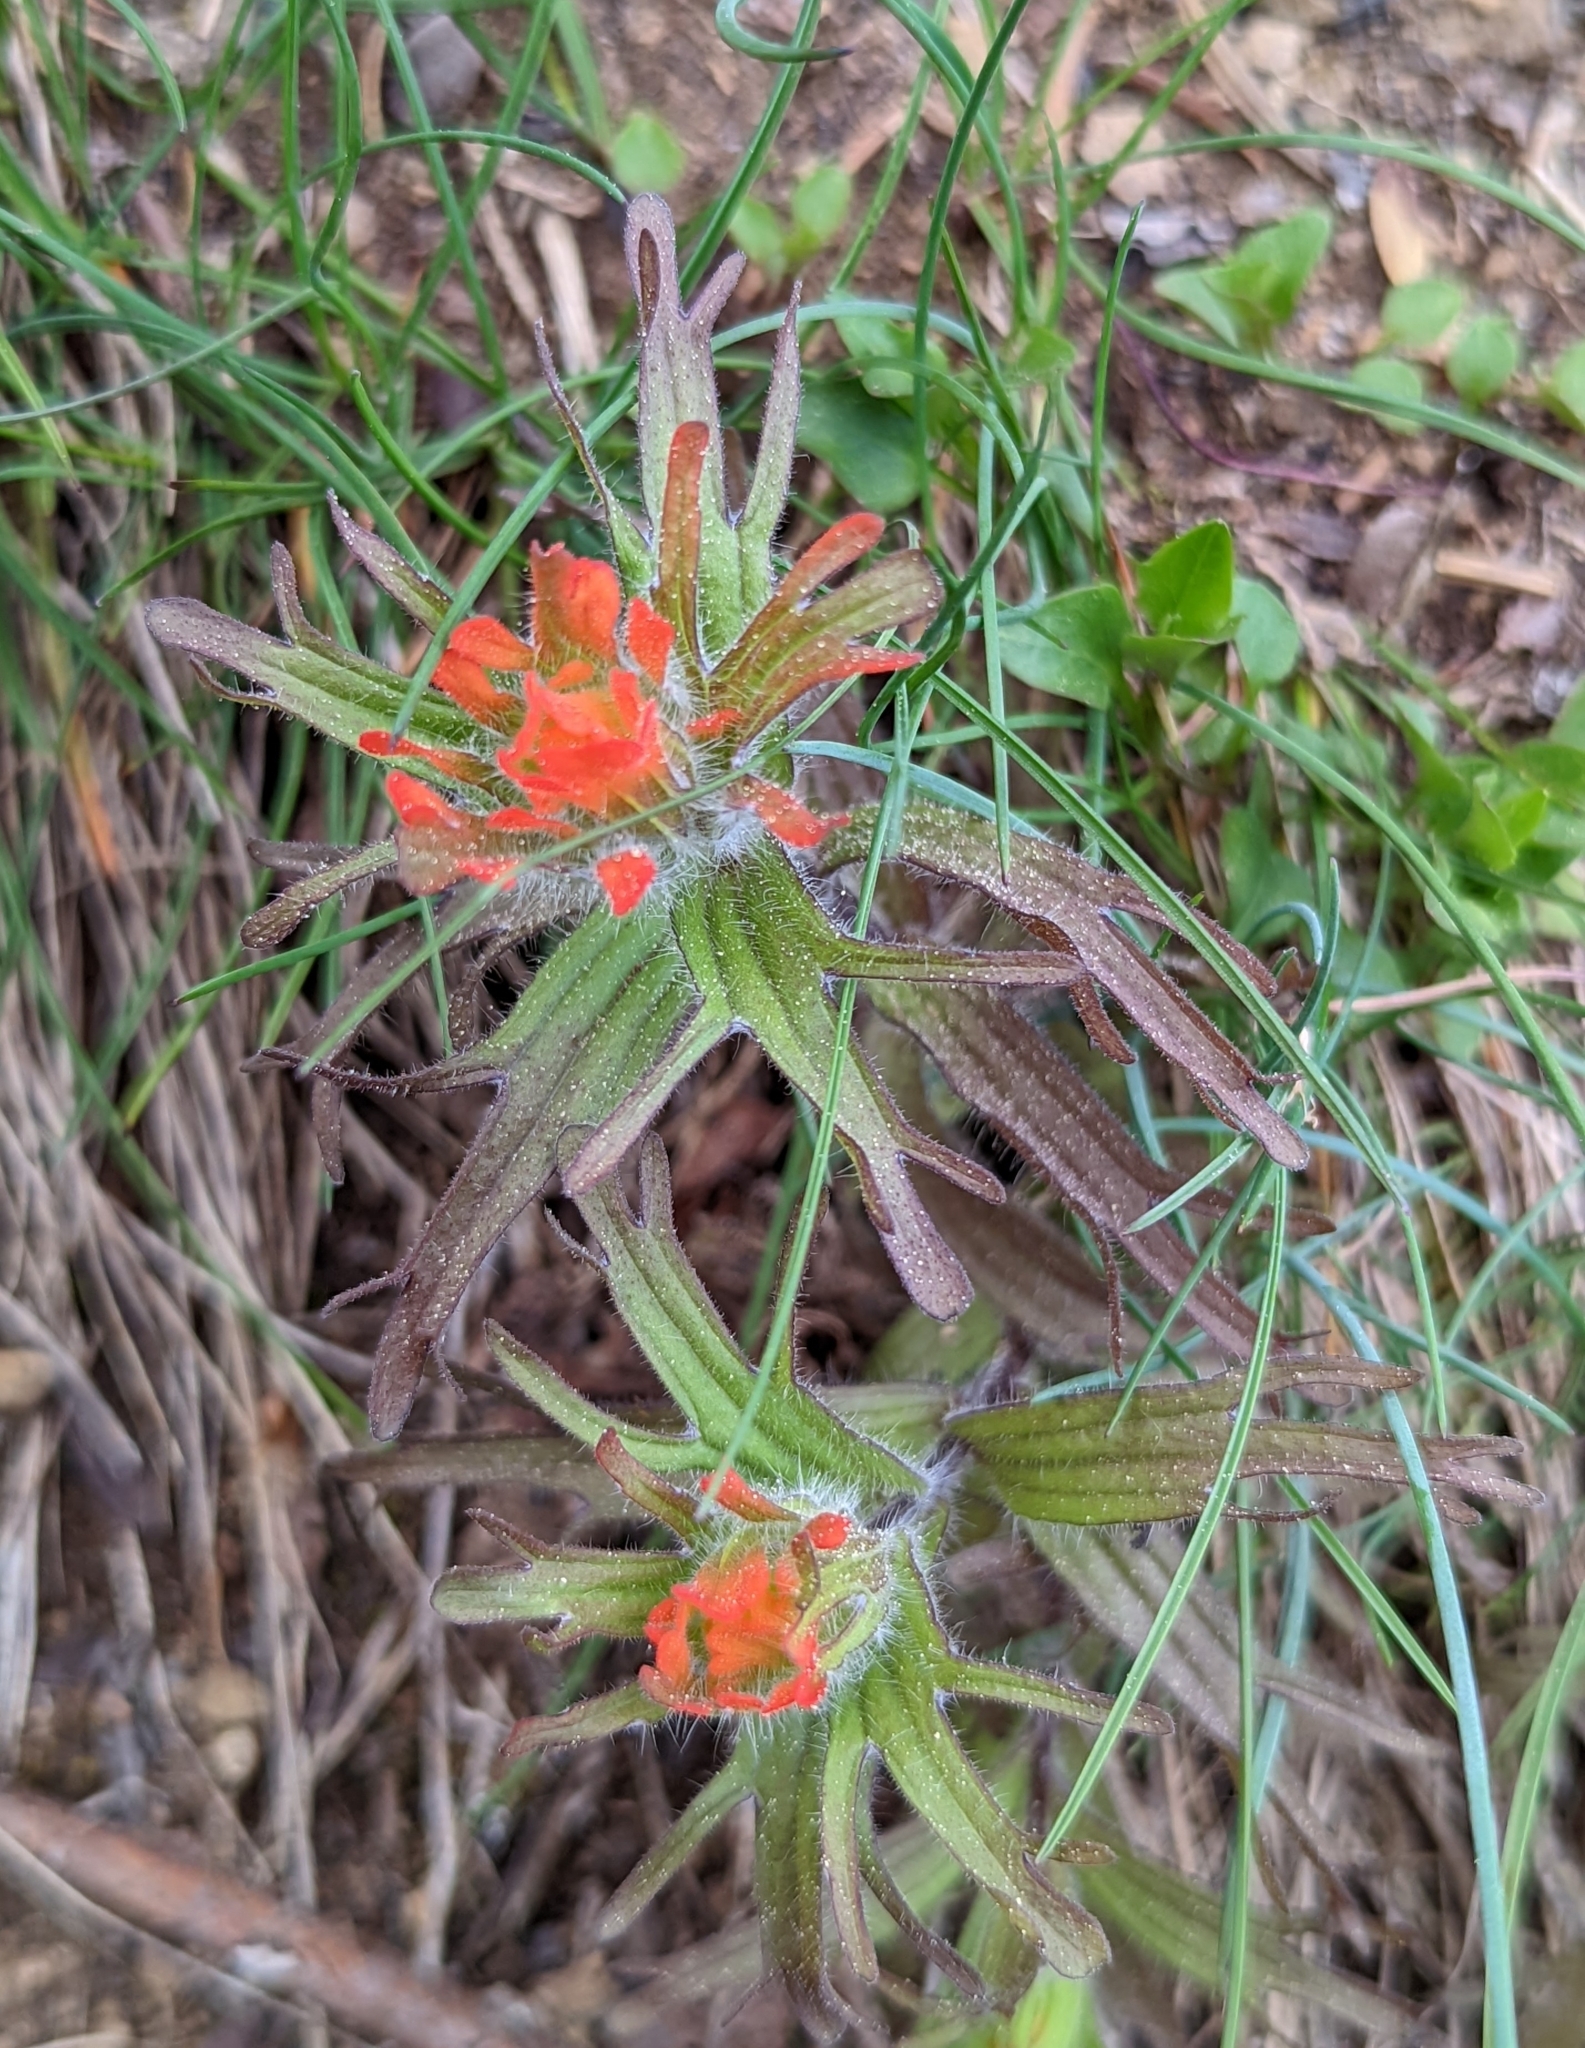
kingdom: Plantae
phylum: Tracheophyta
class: Magnoliopsida
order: Lamiales
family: Orobanchaceae
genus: Castilleja
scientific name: Castilleja hispida
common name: Bristly paintbrush
